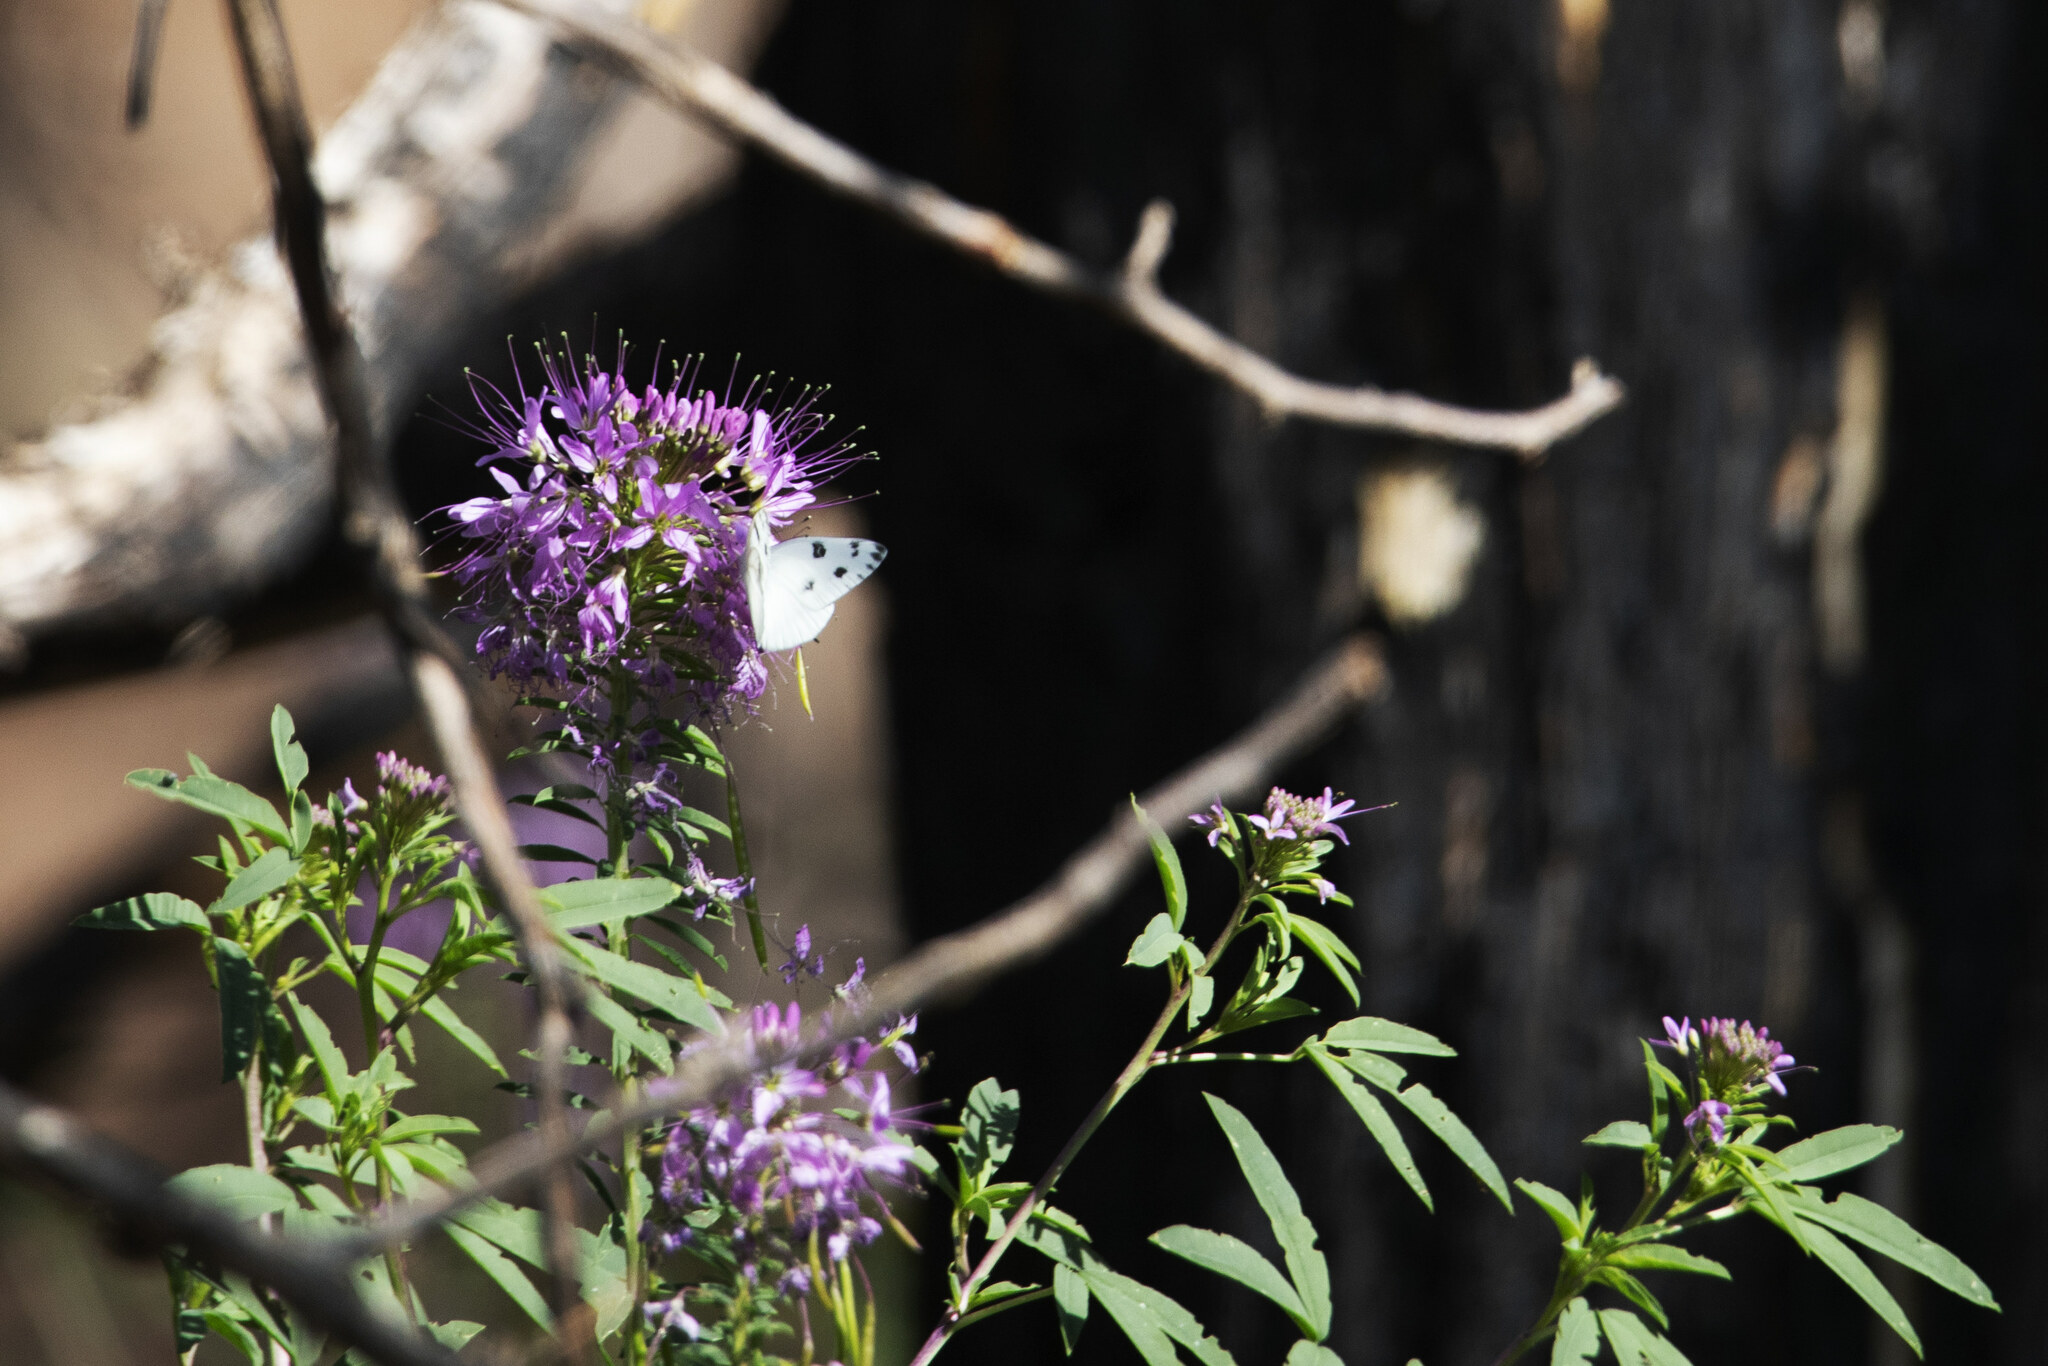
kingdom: Animalia
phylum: Arthropoda
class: Insecta
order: Lepidoptera
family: Pieridae
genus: Pontia
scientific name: Pontia beckerii
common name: Becker's white
